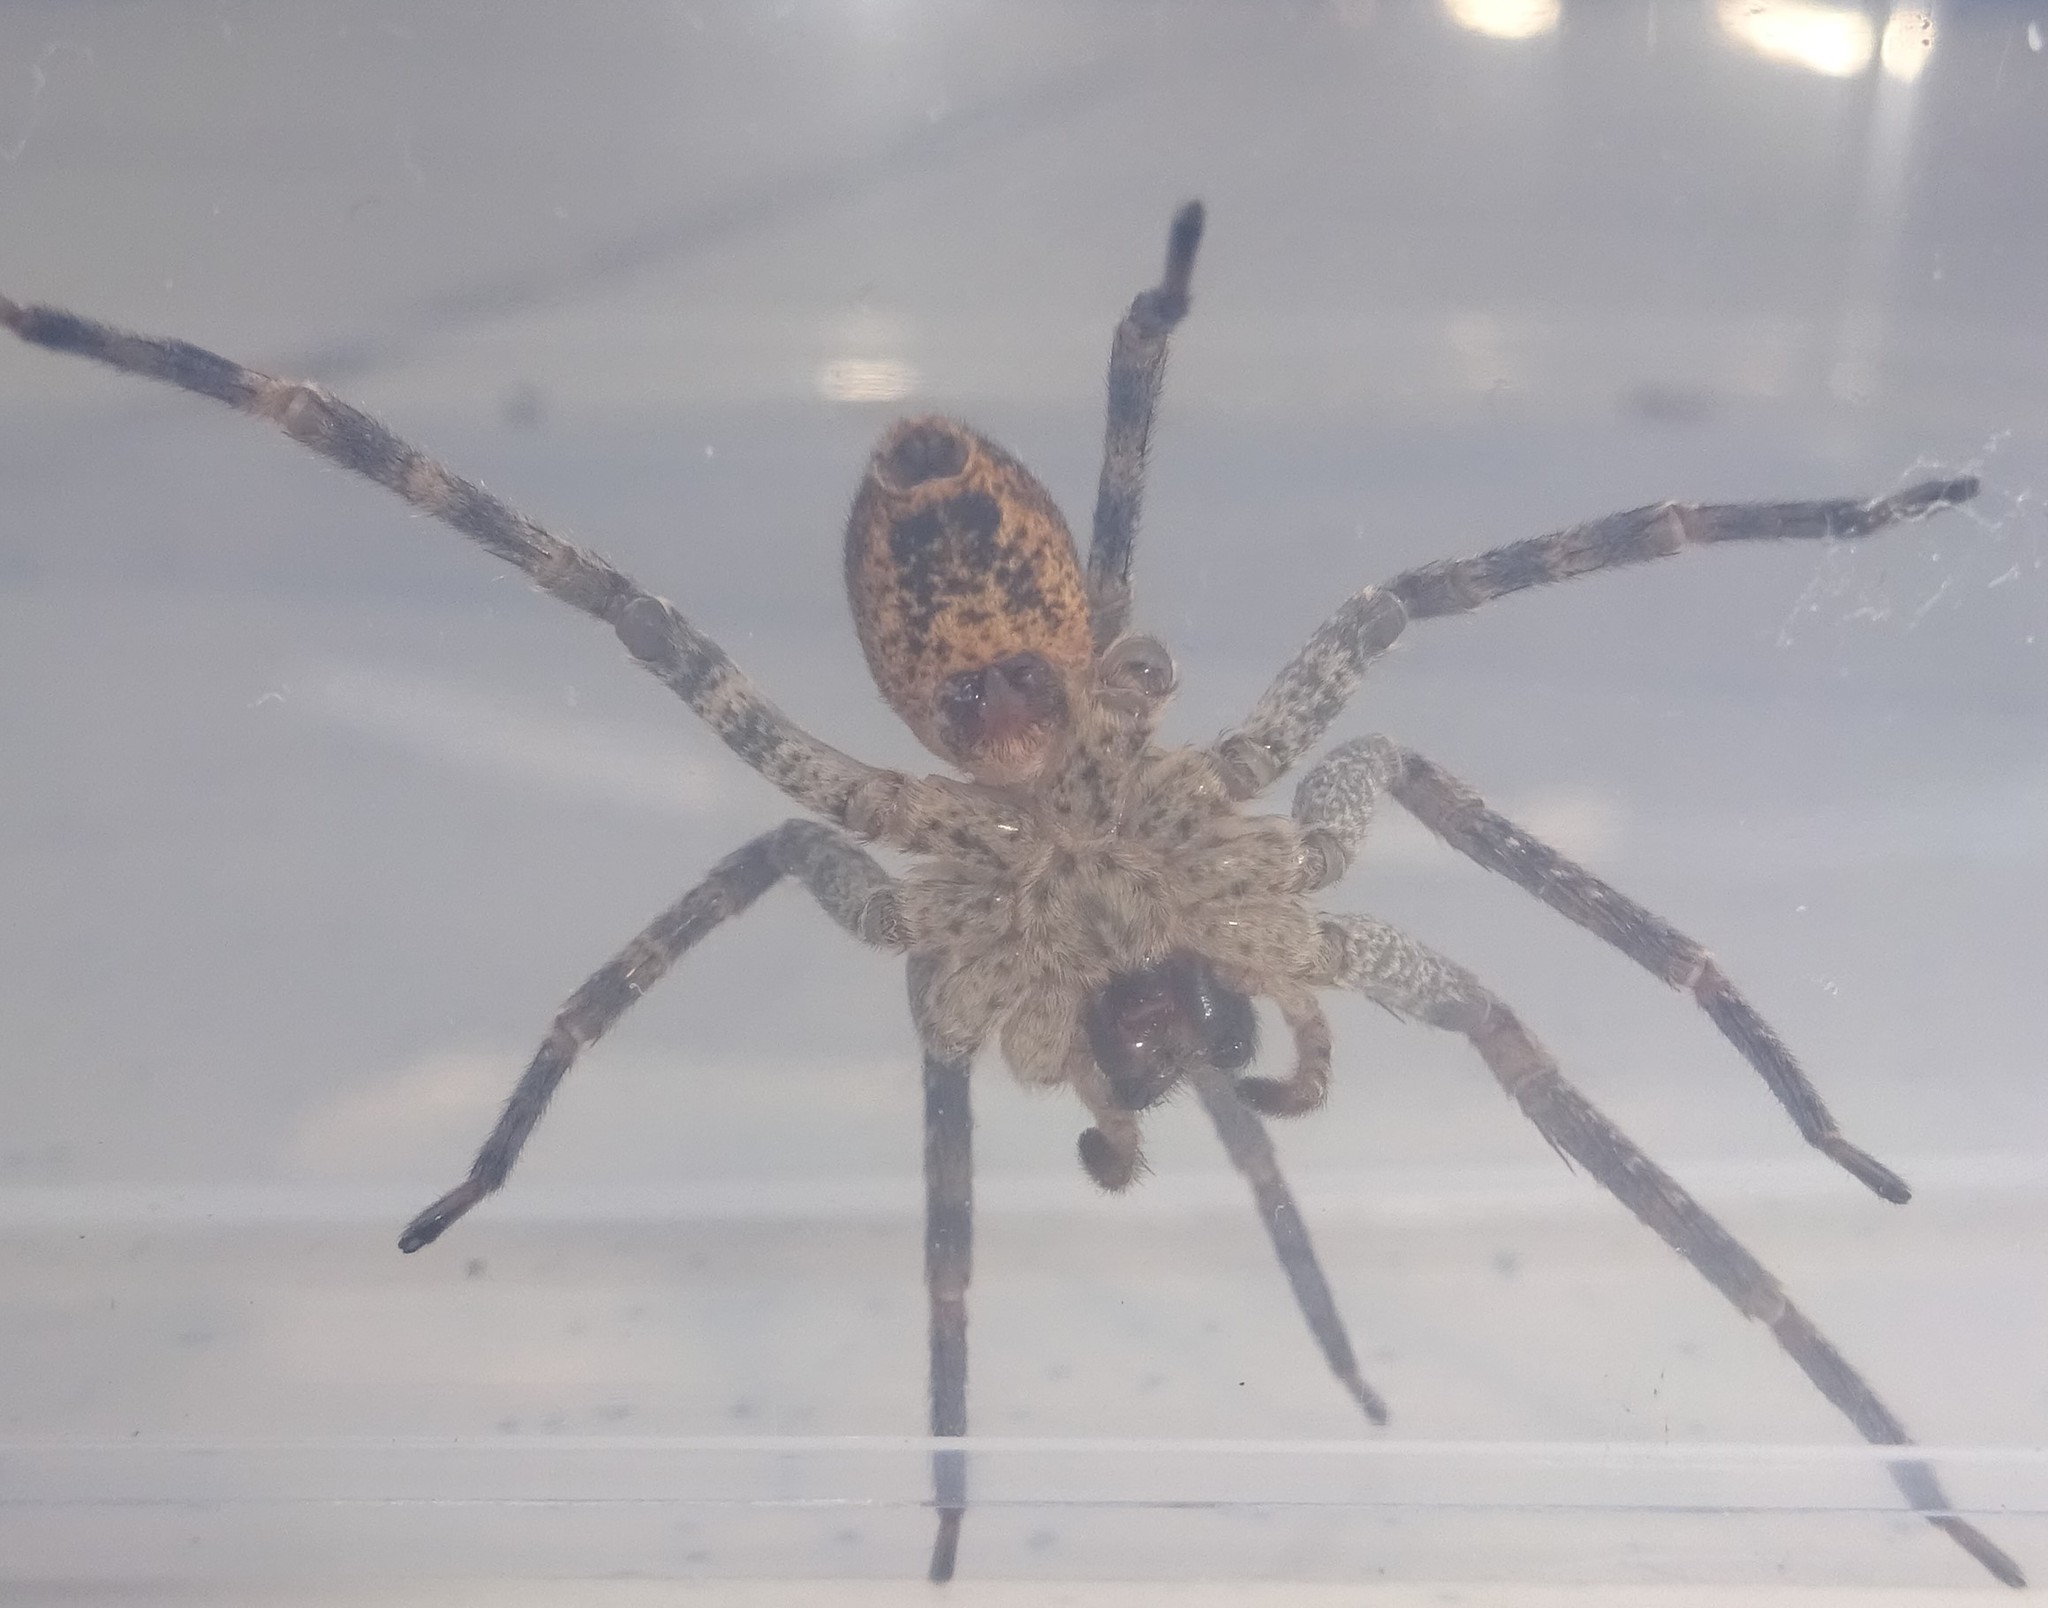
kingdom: Animalia
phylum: Arthropoda
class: Arachnida
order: Araneae
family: Zoropsidae
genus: Zoropsis
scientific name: Zoropsis spinimana
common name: Zoropsid spider
